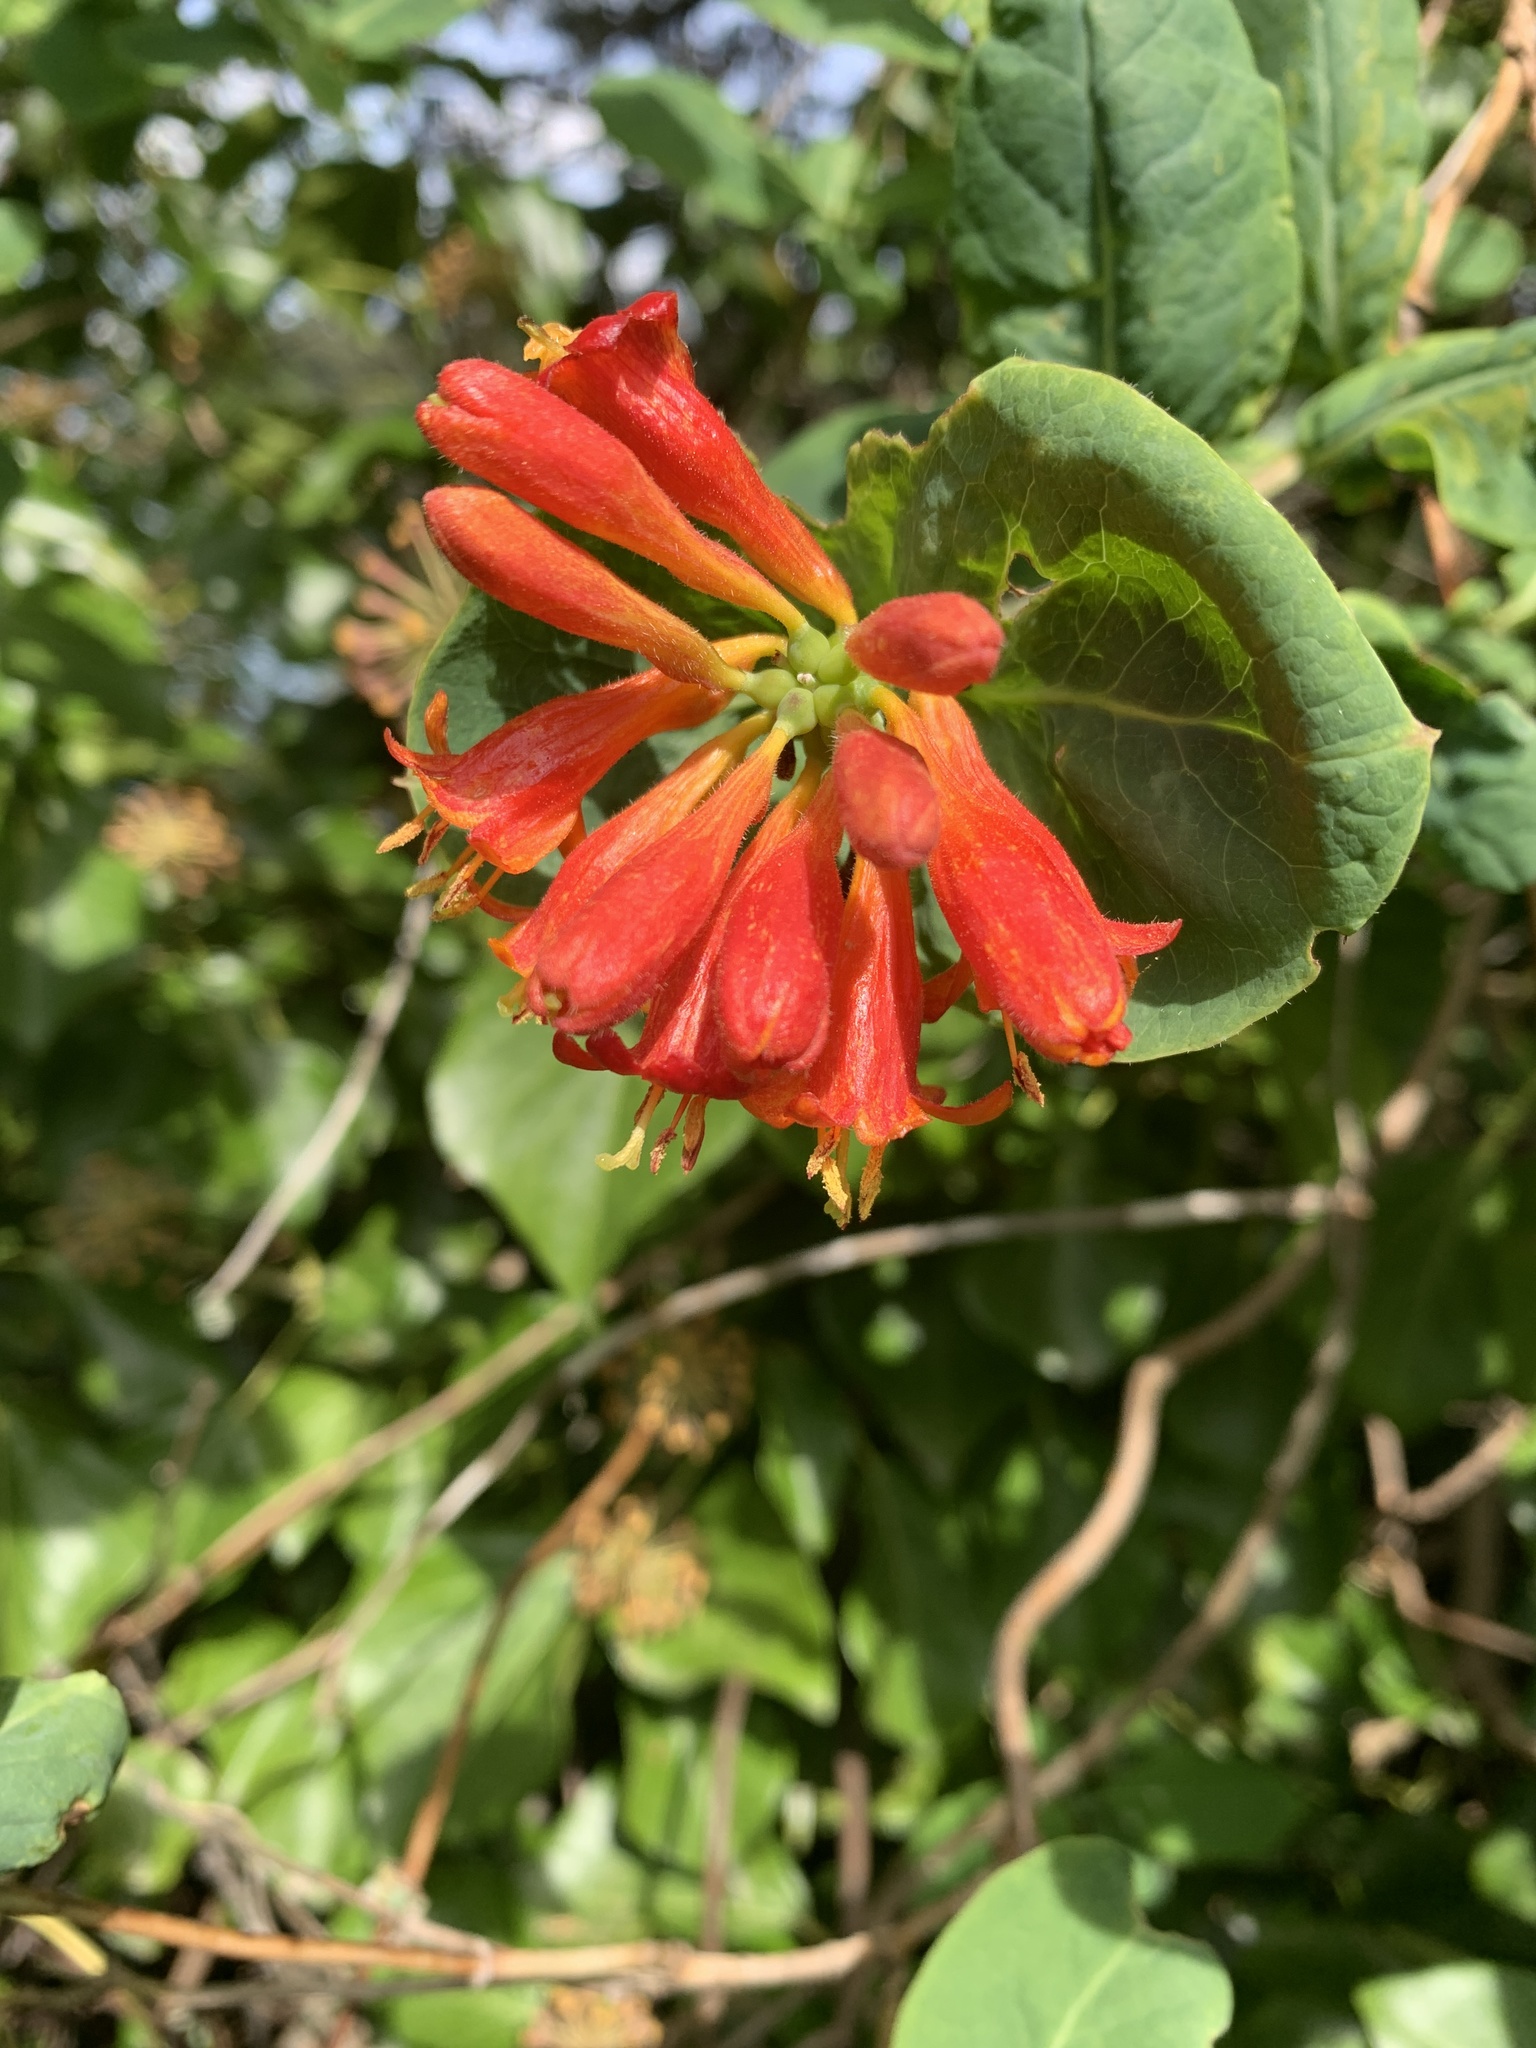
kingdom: Plantae
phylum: Tracheophyta
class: Magnoliopsida
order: Dipsacales
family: Caprifoliaceae
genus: Lonicera
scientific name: Lonicera ciliosa
